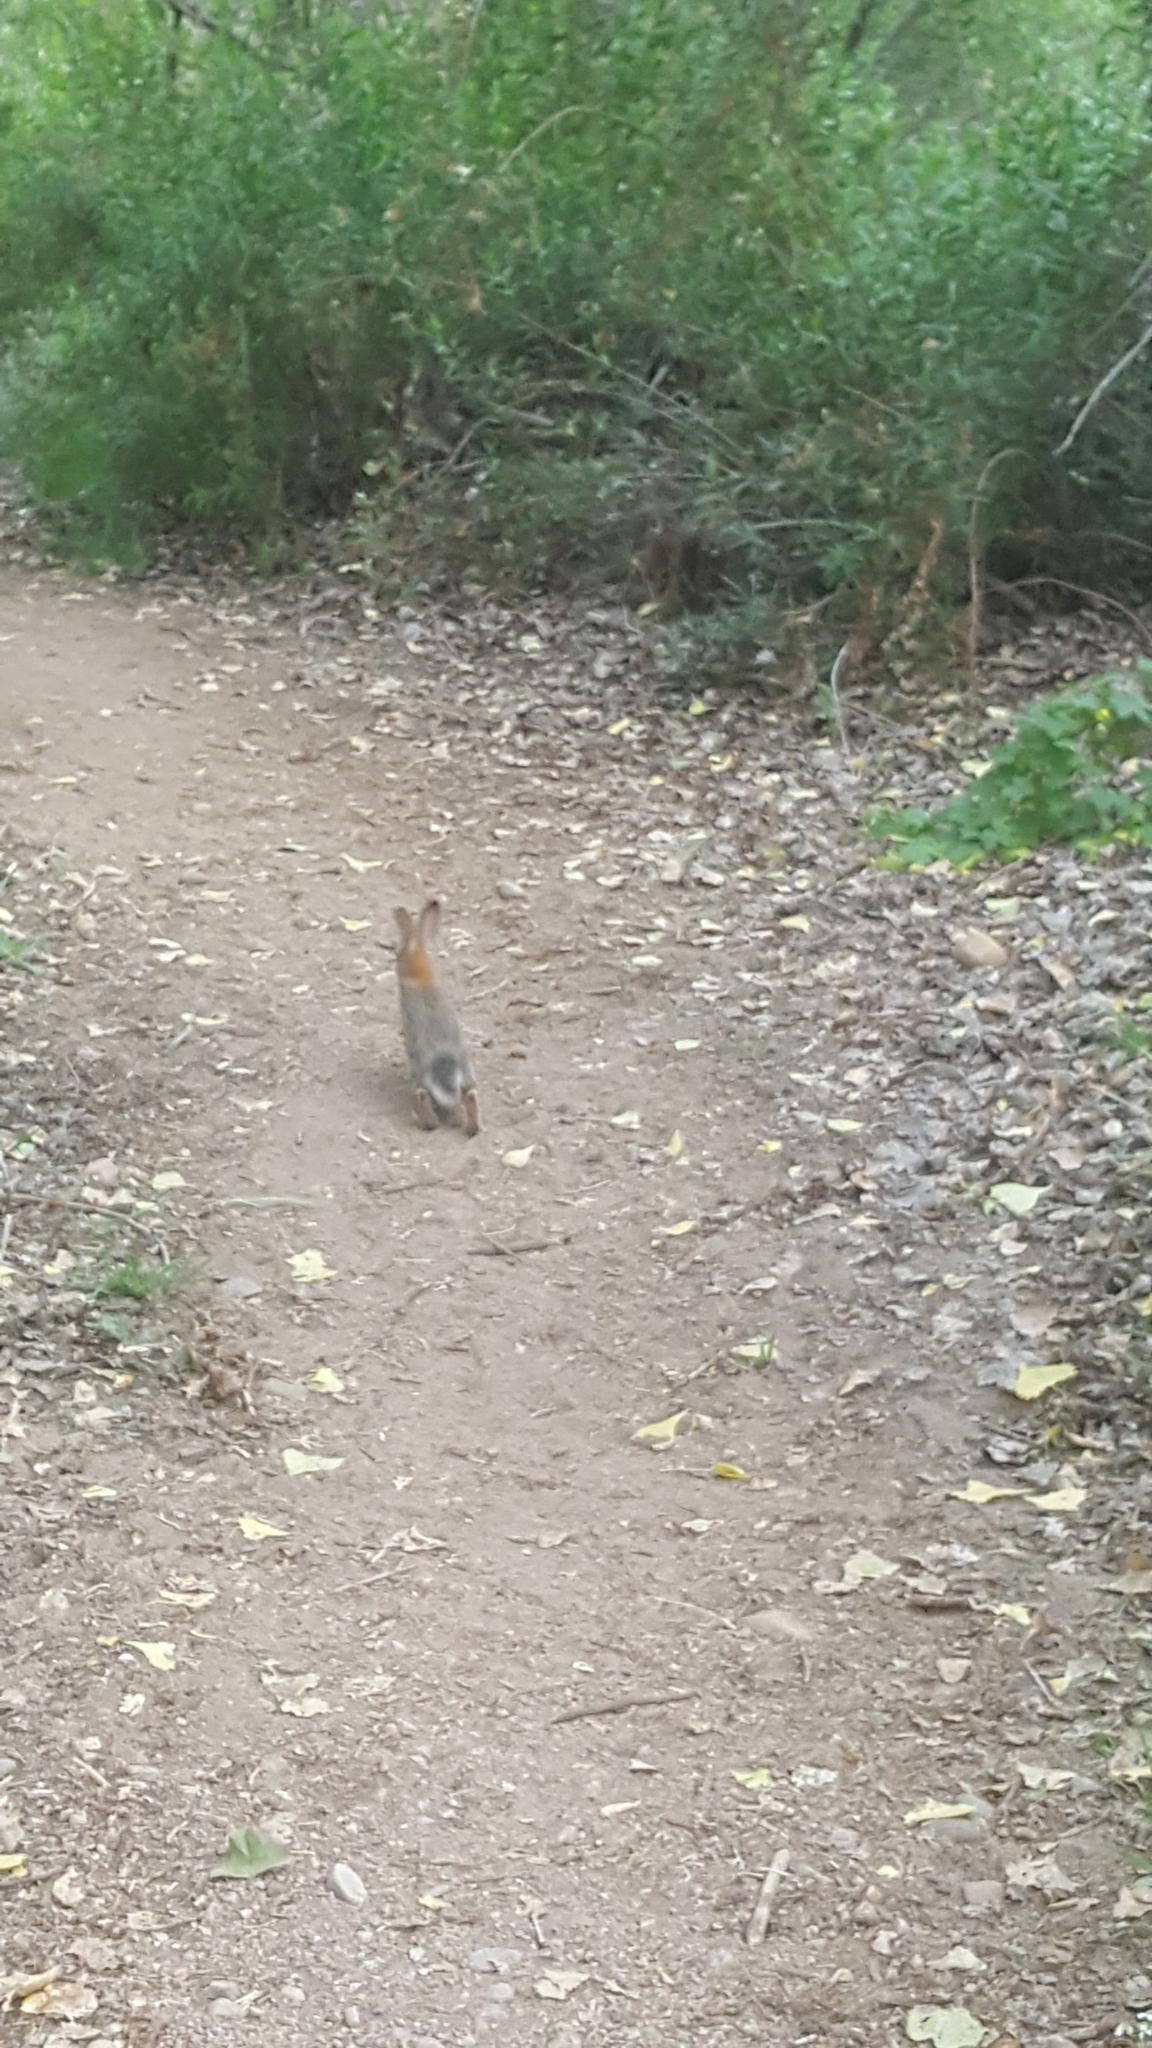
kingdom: Animalia
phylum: Chordata
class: Mammalia
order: Lagomorpha
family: Leporidae
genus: Sylvilagus
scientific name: Sylvilagus audubonii
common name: Desert cottontail
